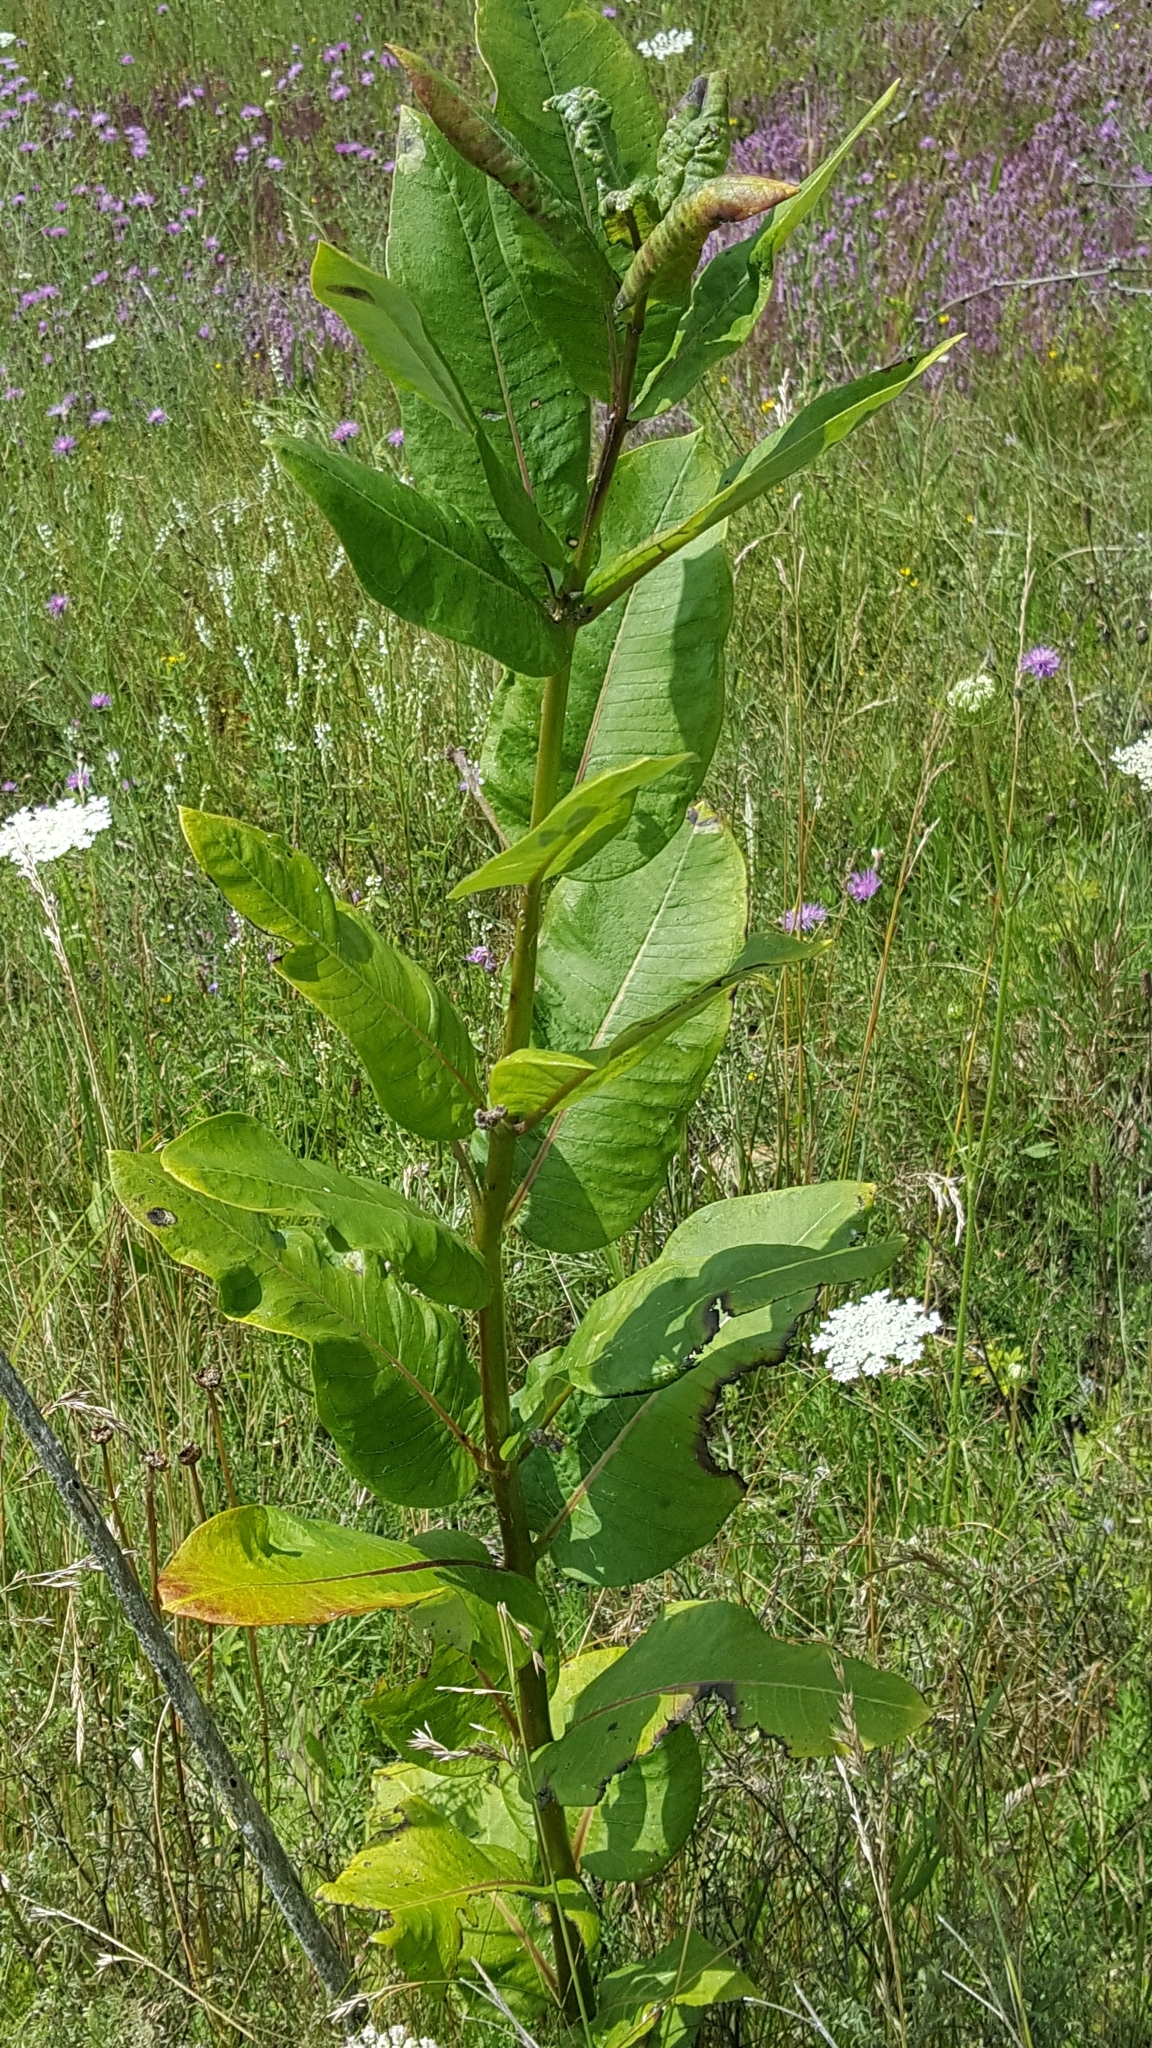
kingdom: Plantae
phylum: Tracheophyta
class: Magnoliopsida
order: Gentianales
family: Apocynaceae
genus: Asclepias
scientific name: Asclepias syriaca
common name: Common milkweed
